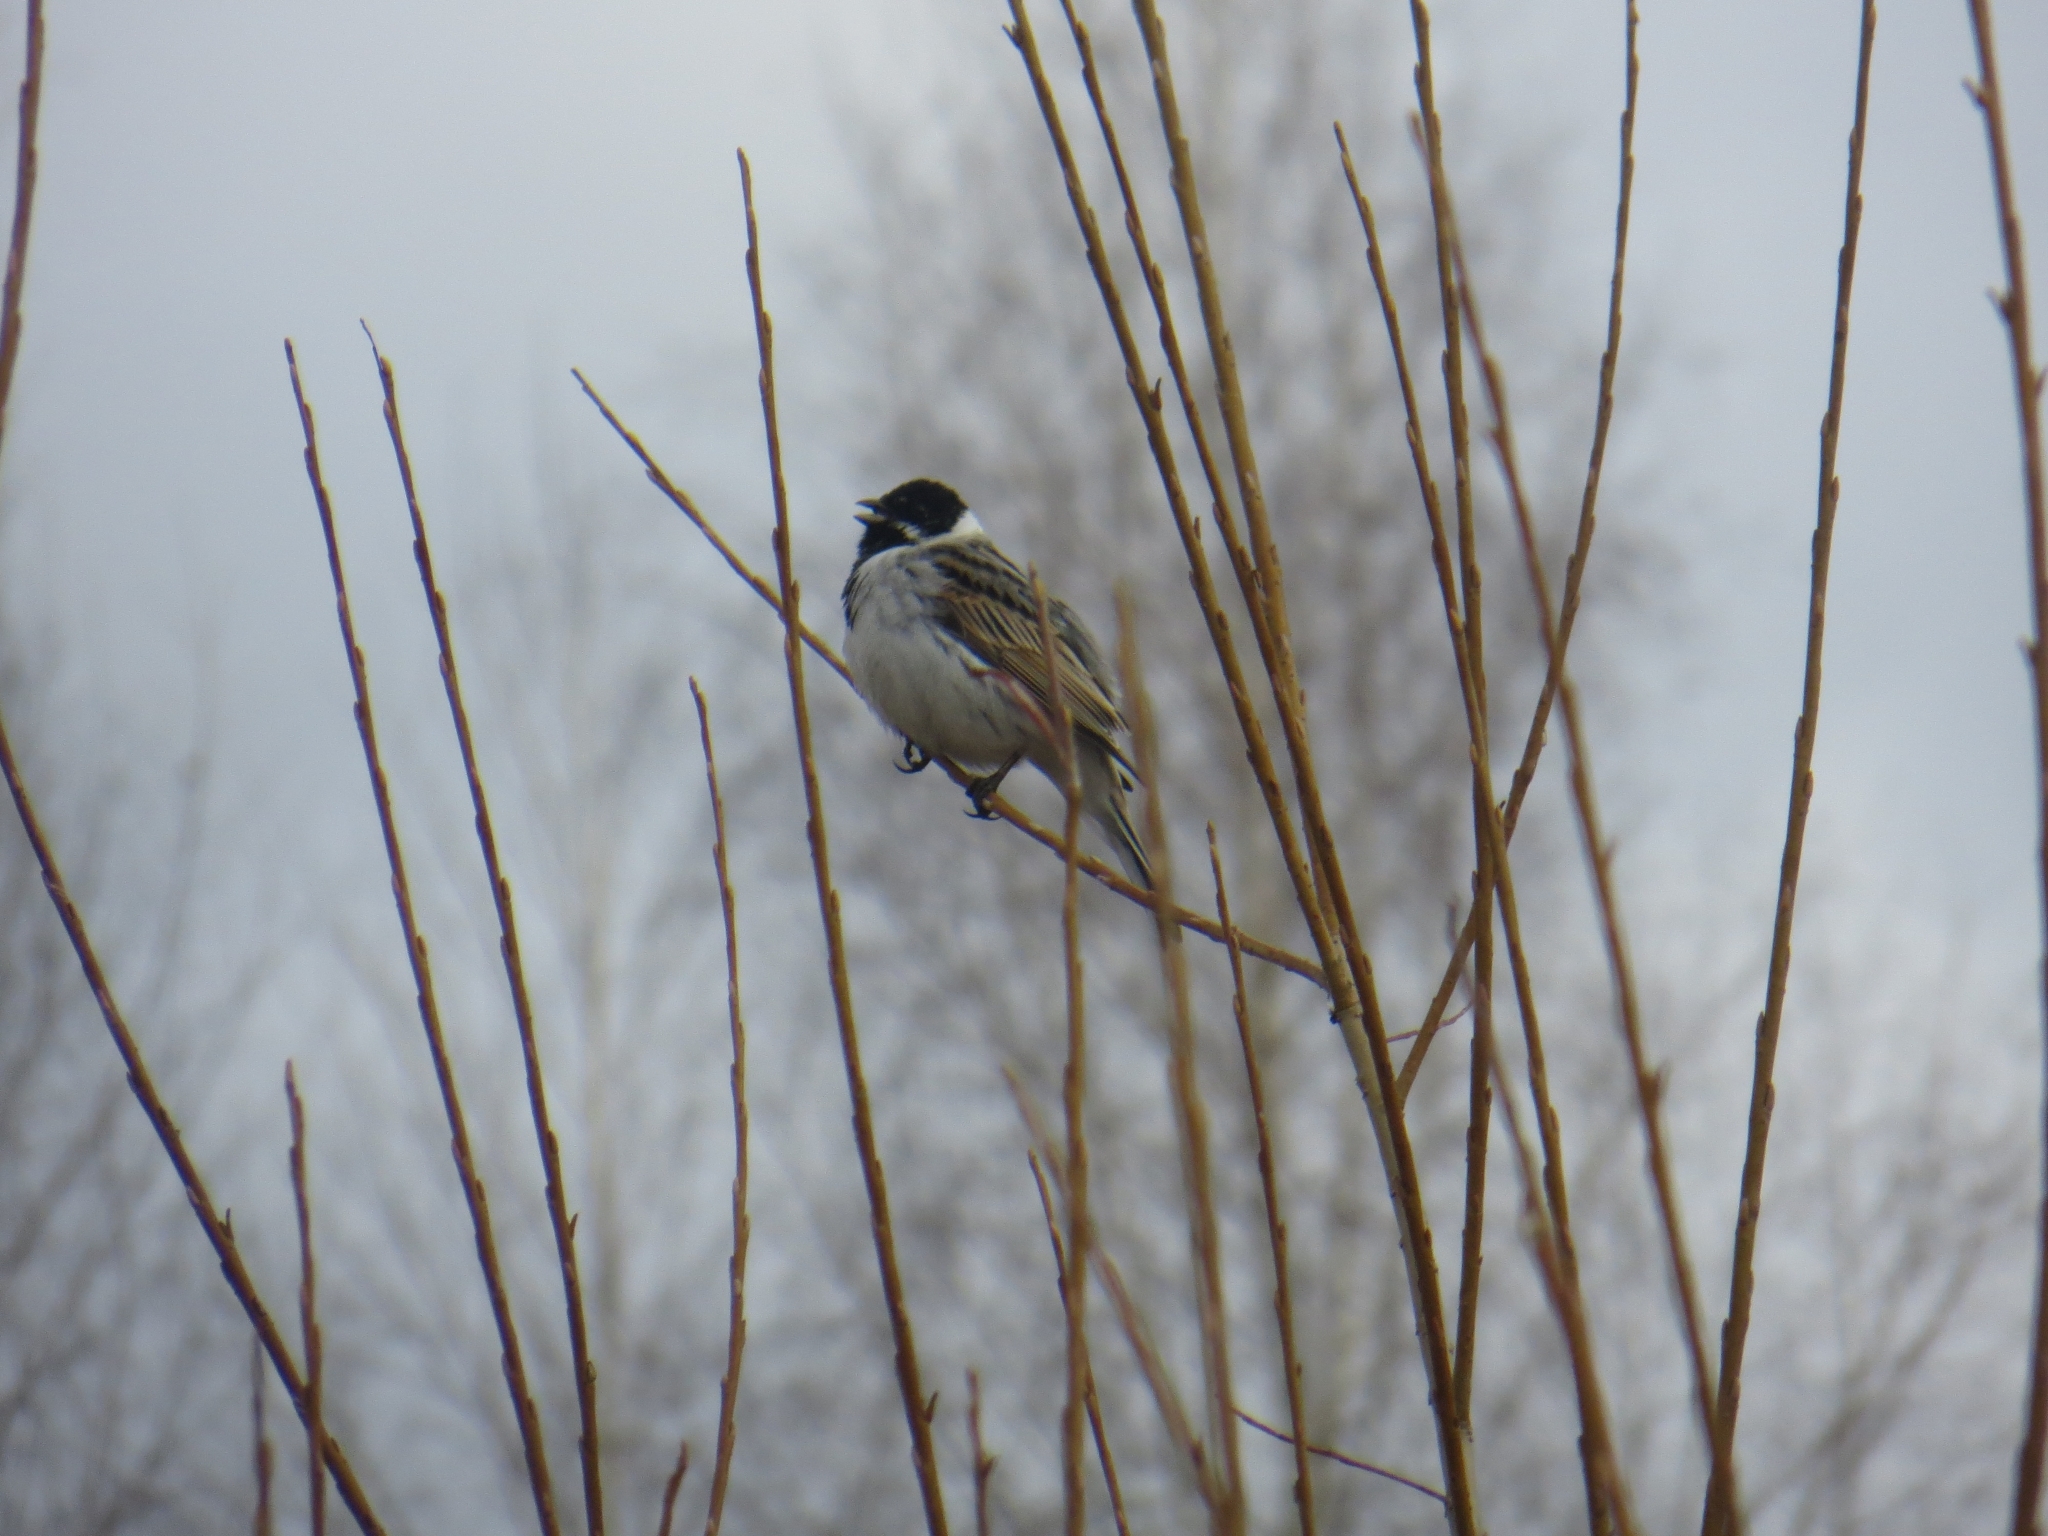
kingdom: Animalia
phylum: Chordata
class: Aves
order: Passeriformes
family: Emberizidae
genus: Emberiza
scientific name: Emberiza schoeniclus
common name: Reed bunting
